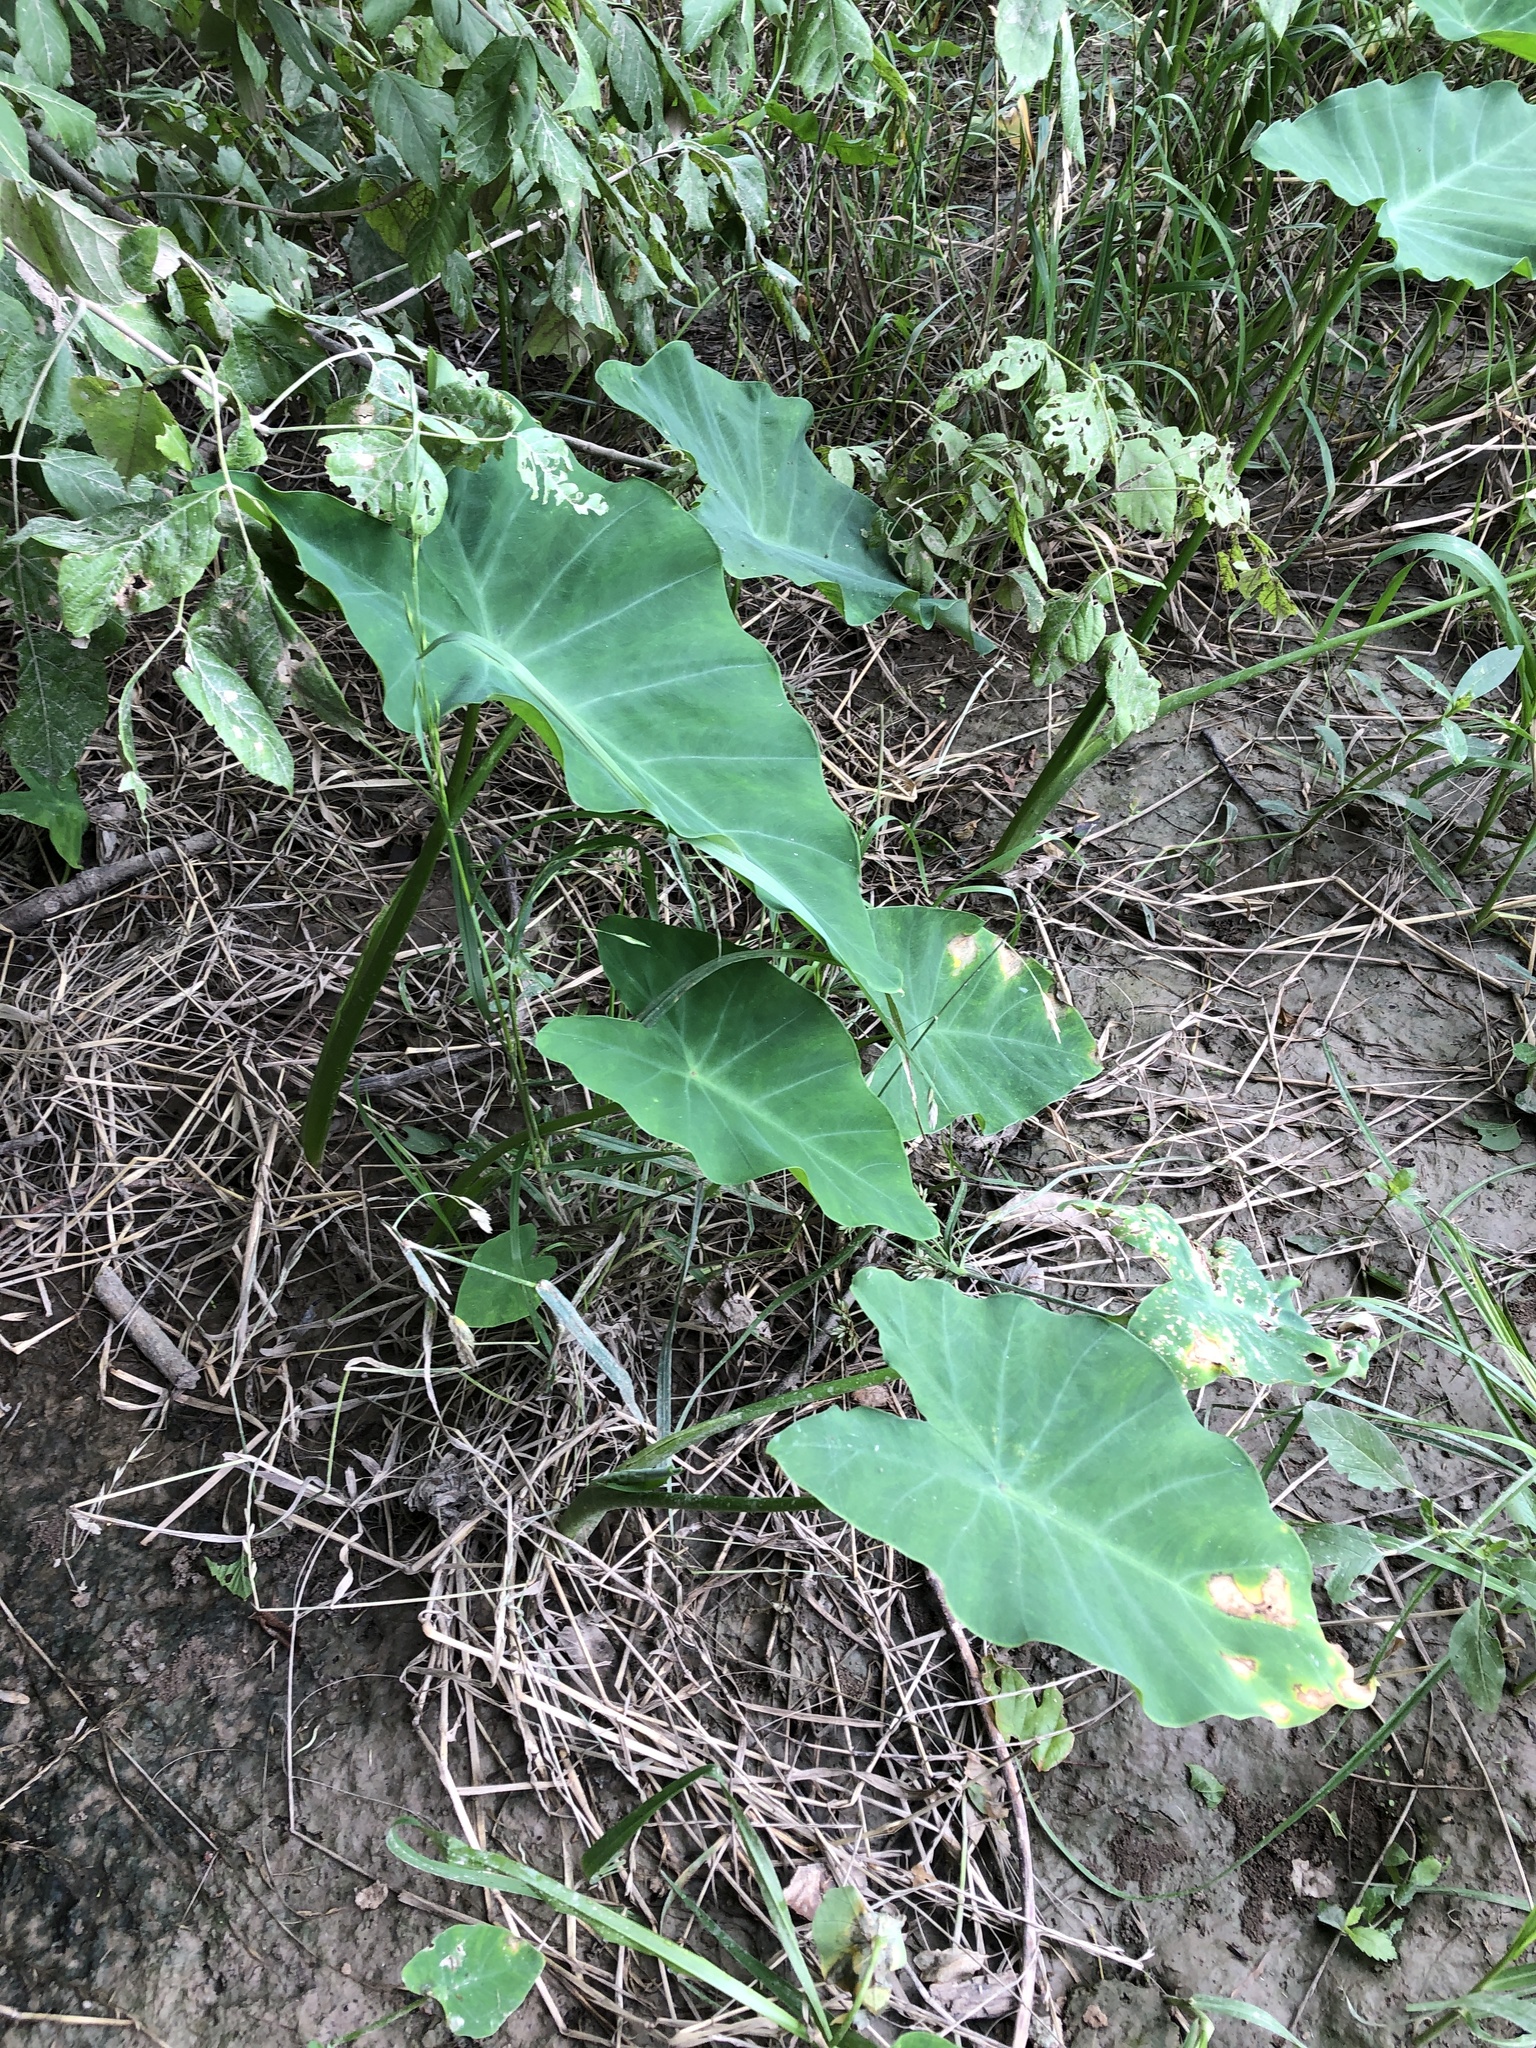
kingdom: Plantae
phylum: Tracheophyta
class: Liliopsida
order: Alismatales
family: Araceae
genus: Colocasia
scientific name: Colocasia esculenta
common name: Taro
